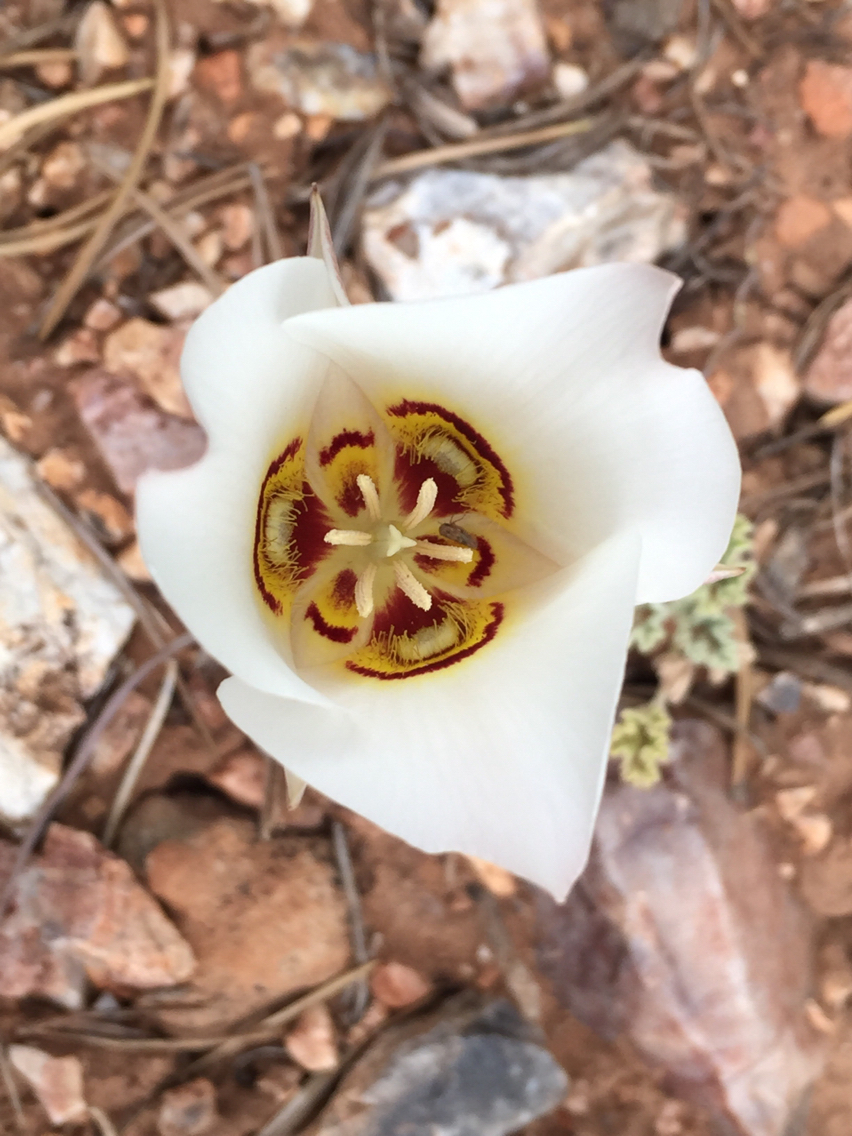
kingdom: Plantae
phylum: Tracheophyta
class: Liliopsida
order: Liliales
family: Liliaceae
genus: Calochortus
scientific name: Calochortus nuttallii
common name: Sego-lily
